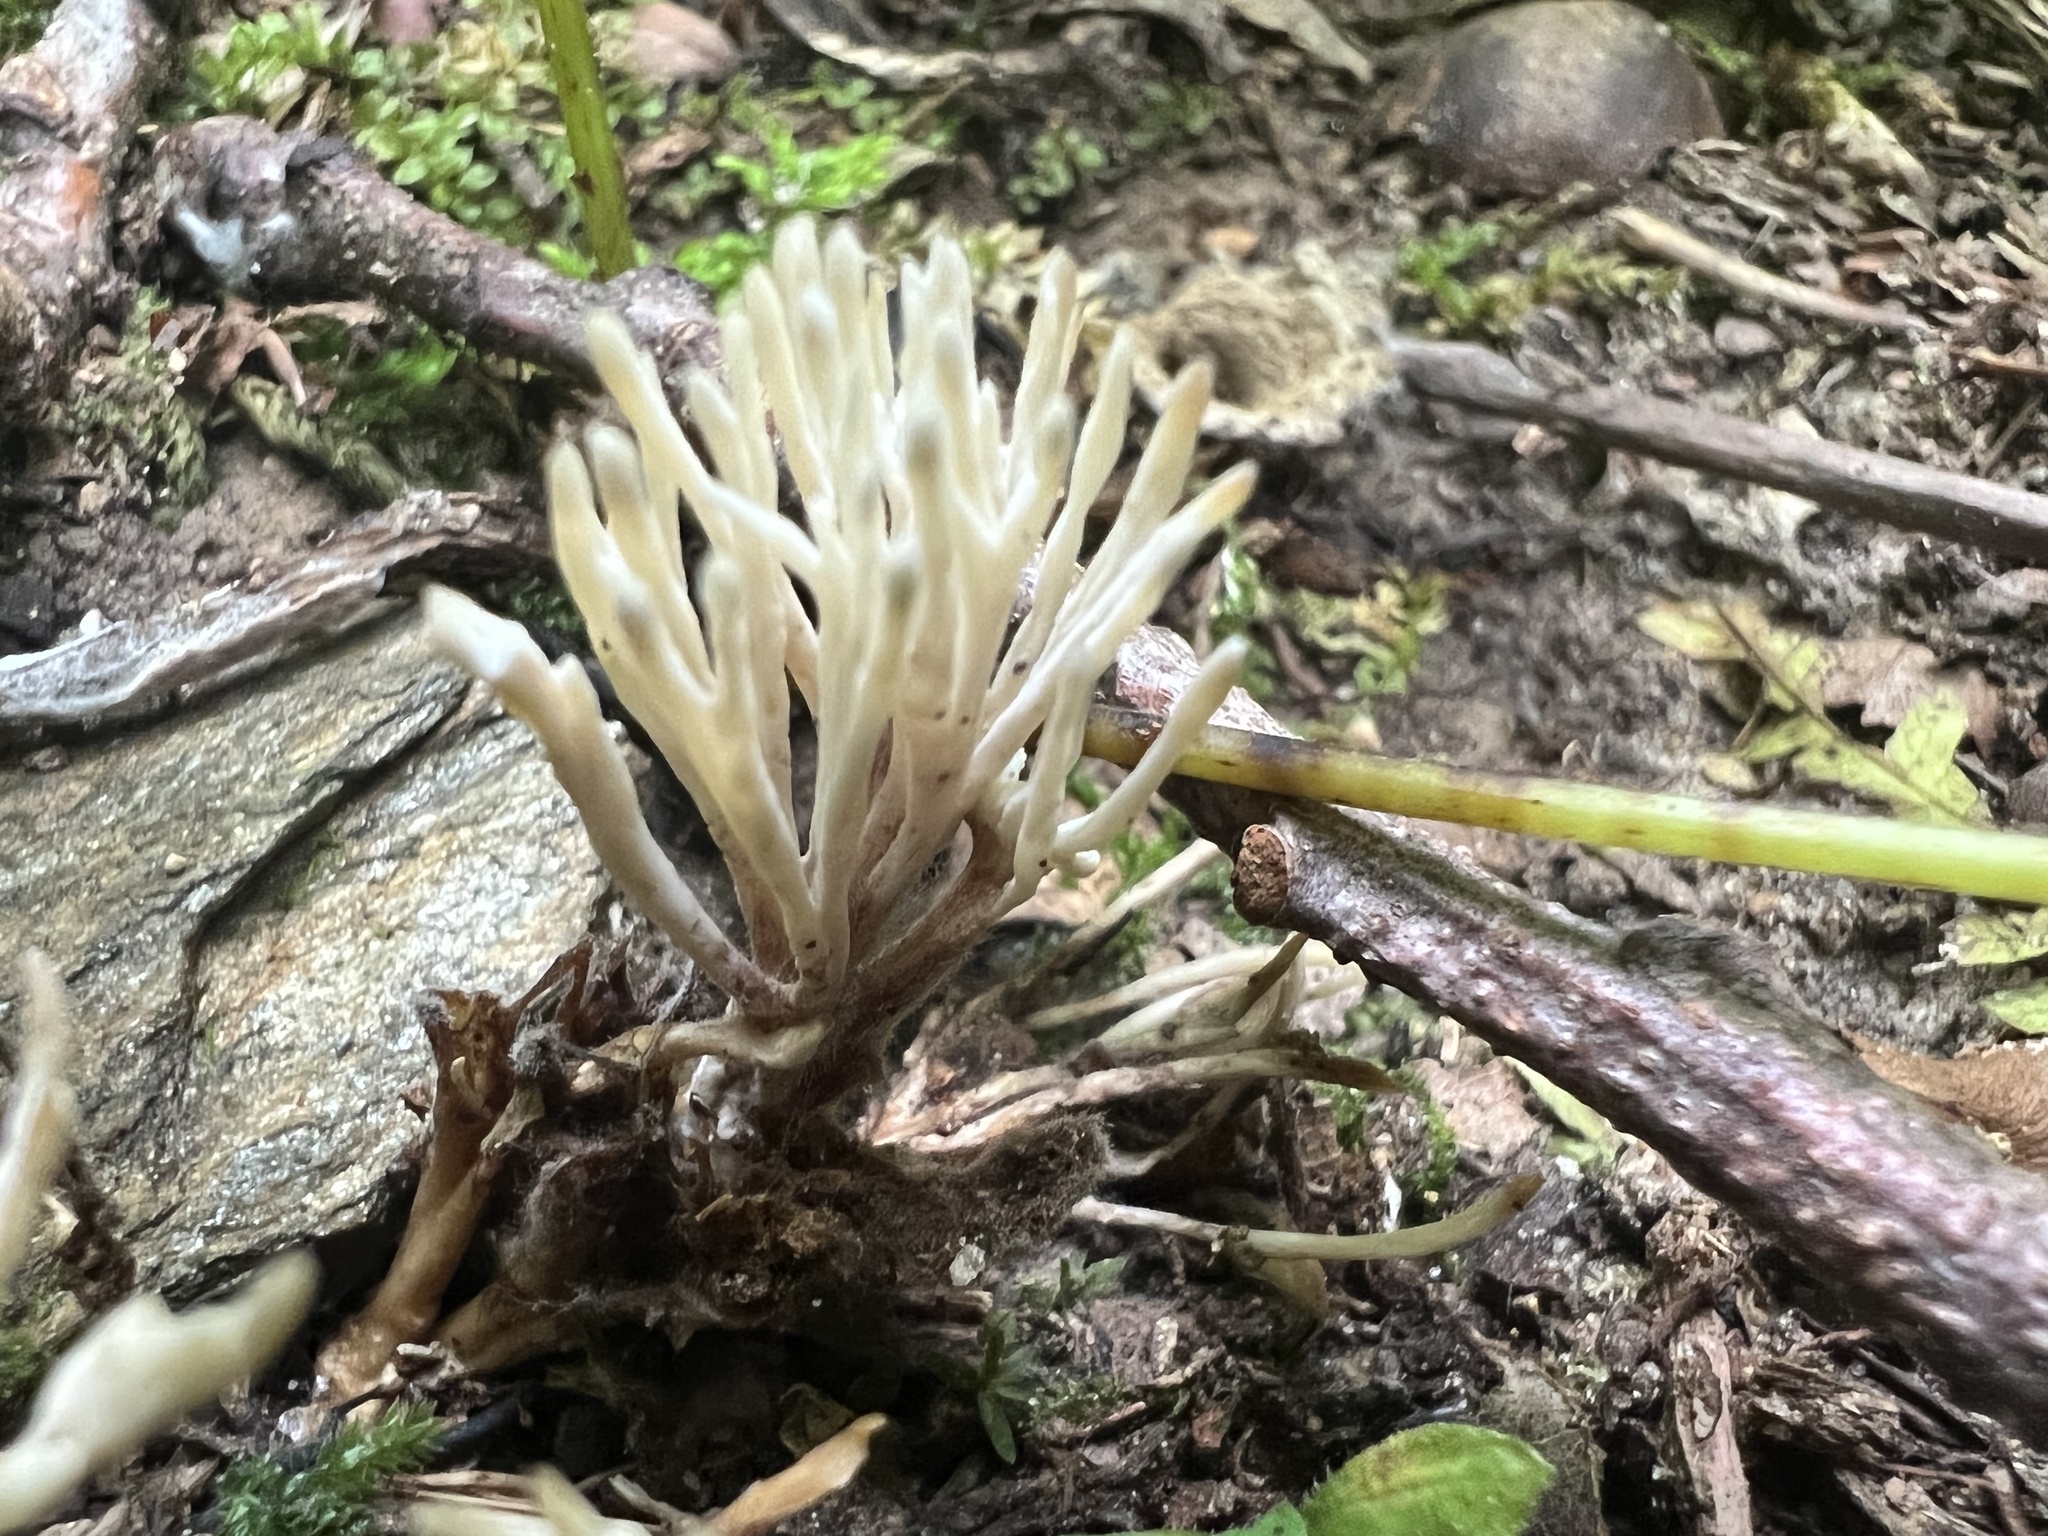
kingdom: Fungi
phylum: Basidiomycota
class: Agaricomycetes
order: Tremellodendropsidales
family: Tremellodendropsidaceae
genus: Tremellodendropsis
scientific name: Tremellodendropsis tuberosa
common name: Ashen coral
